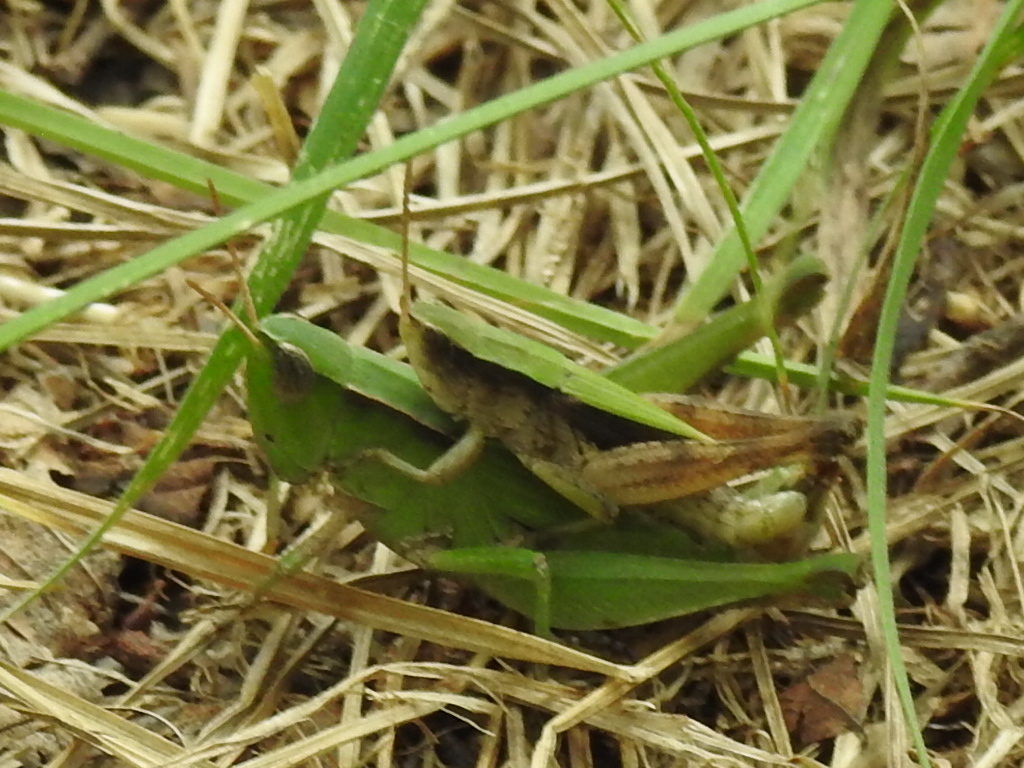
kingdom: Animalia
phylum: Arthropoda
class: Insecta
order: Orthoptera
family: Acrididae
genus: Dichromorpha
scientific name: Dichromorpha viridis
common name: Short-winged green grasshopper
